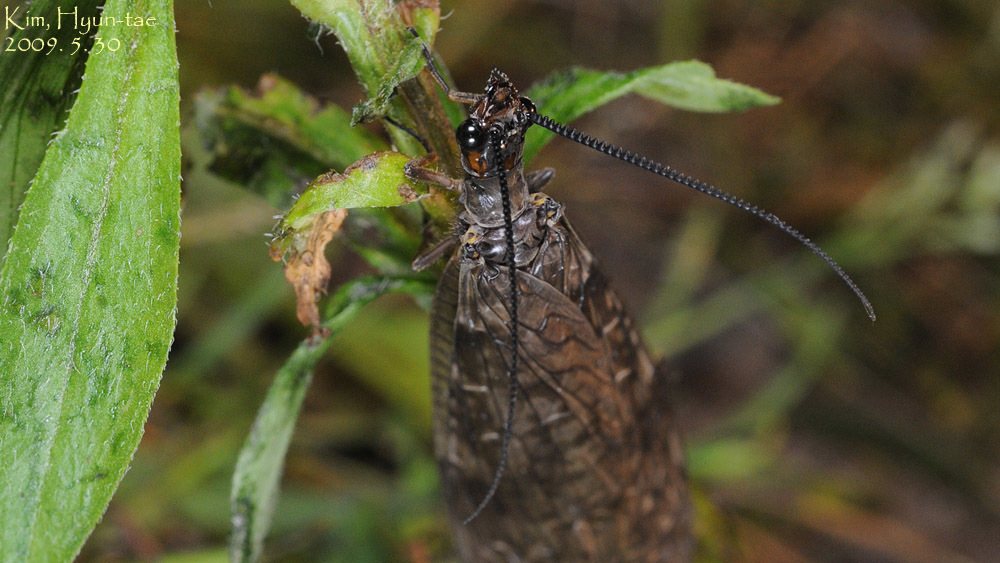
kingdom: Animalia
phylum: Arthropoda
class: Insecta
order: Megaloptera
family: Corydalidae
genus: Parachauliodes
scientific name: Parachauliodes asahinai
